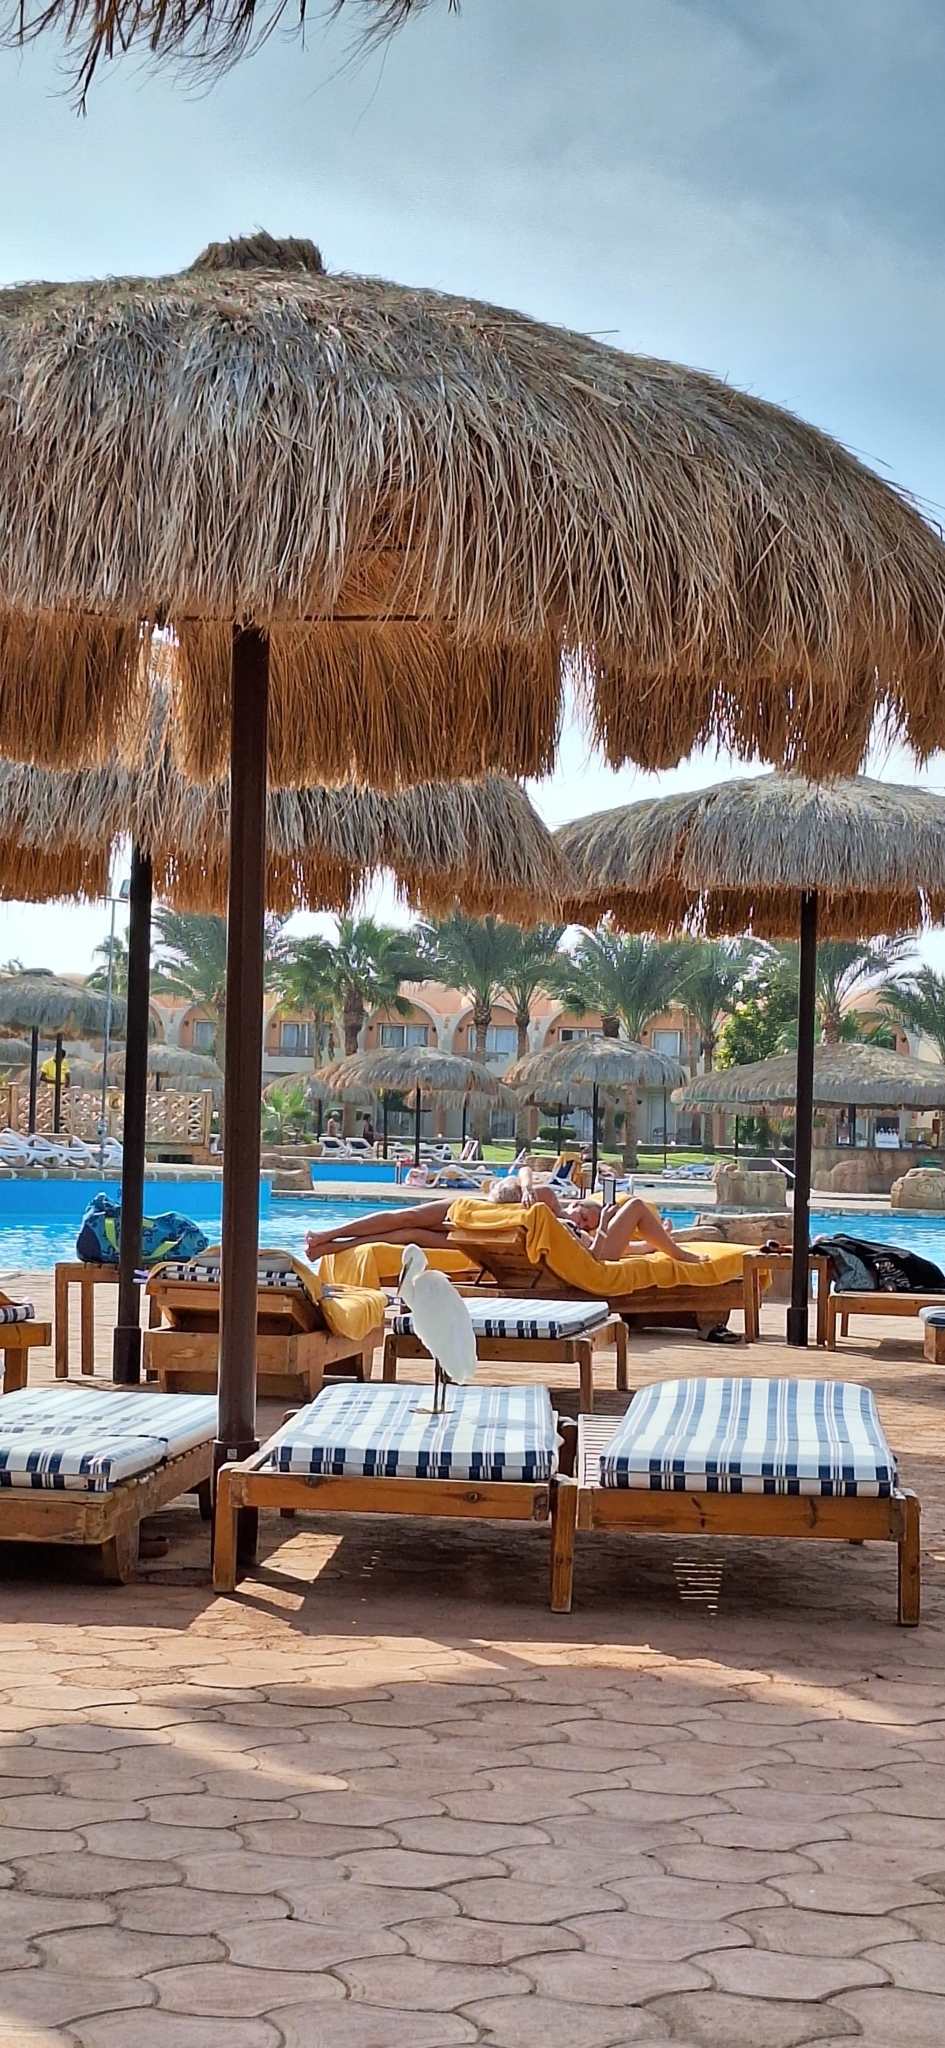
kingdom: Animalia
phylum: Chordata
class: Aves
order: Pelecaniformes
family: Ardeidae
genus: Egretta
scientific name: Egretta gularis
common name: Western reef-heron
